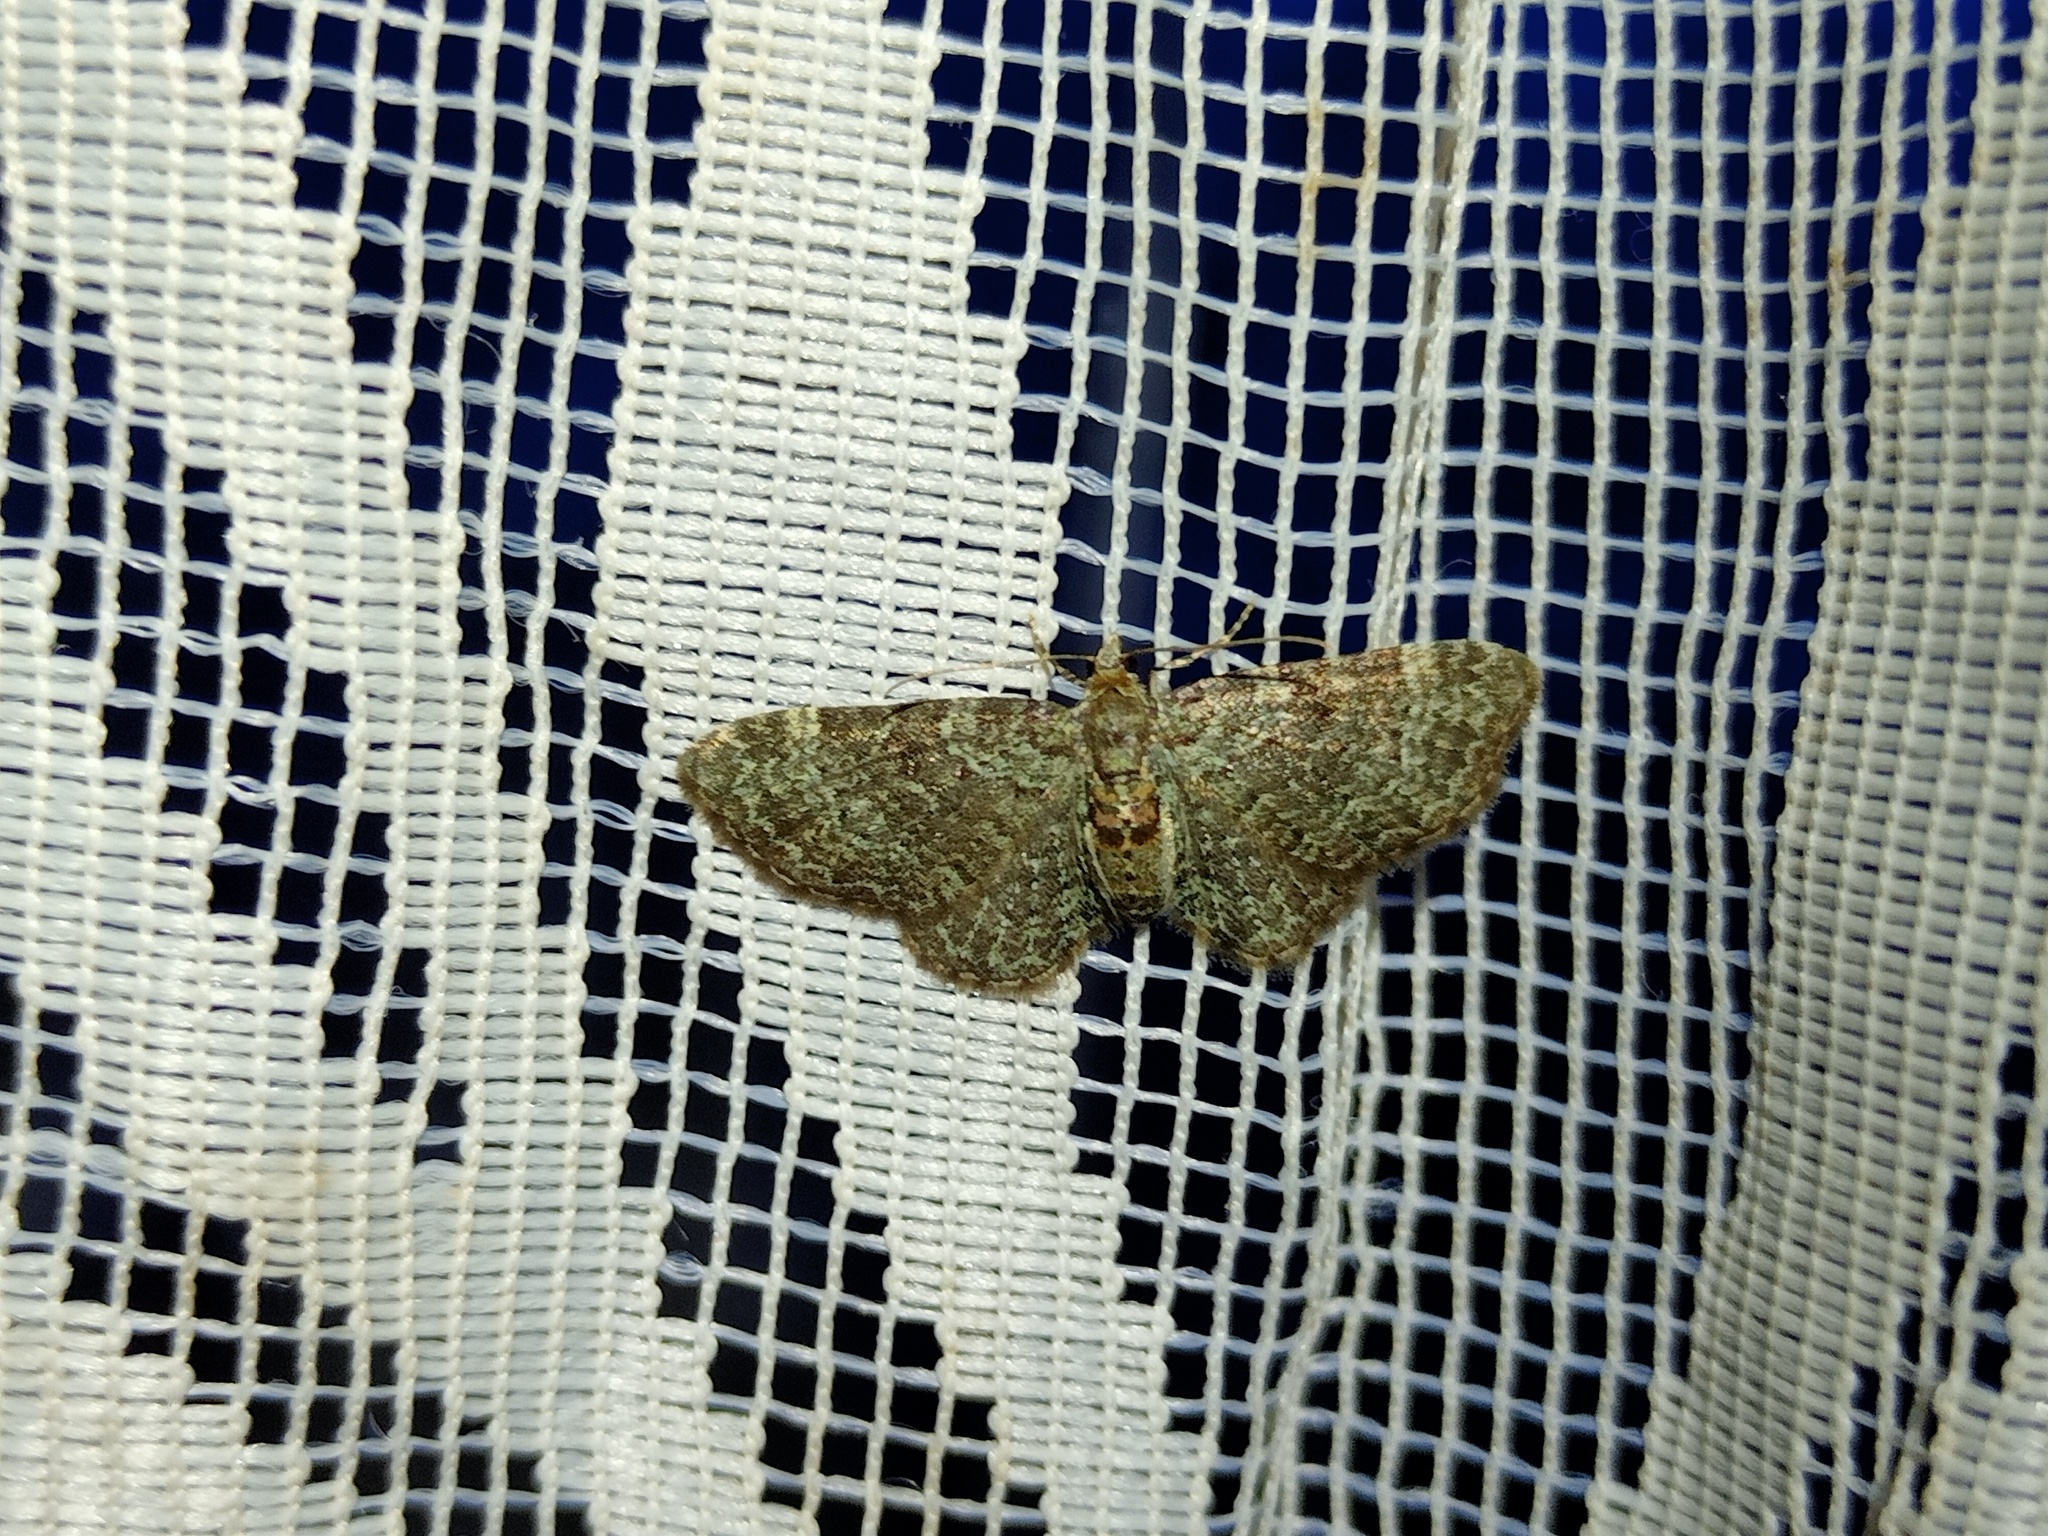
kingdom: Animalia
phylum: Arthropoda
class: Insecta
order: Lepidoptera
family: Geometridae
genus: Pasiphila
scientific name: Pasiphila rectangulata
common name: Green pug
